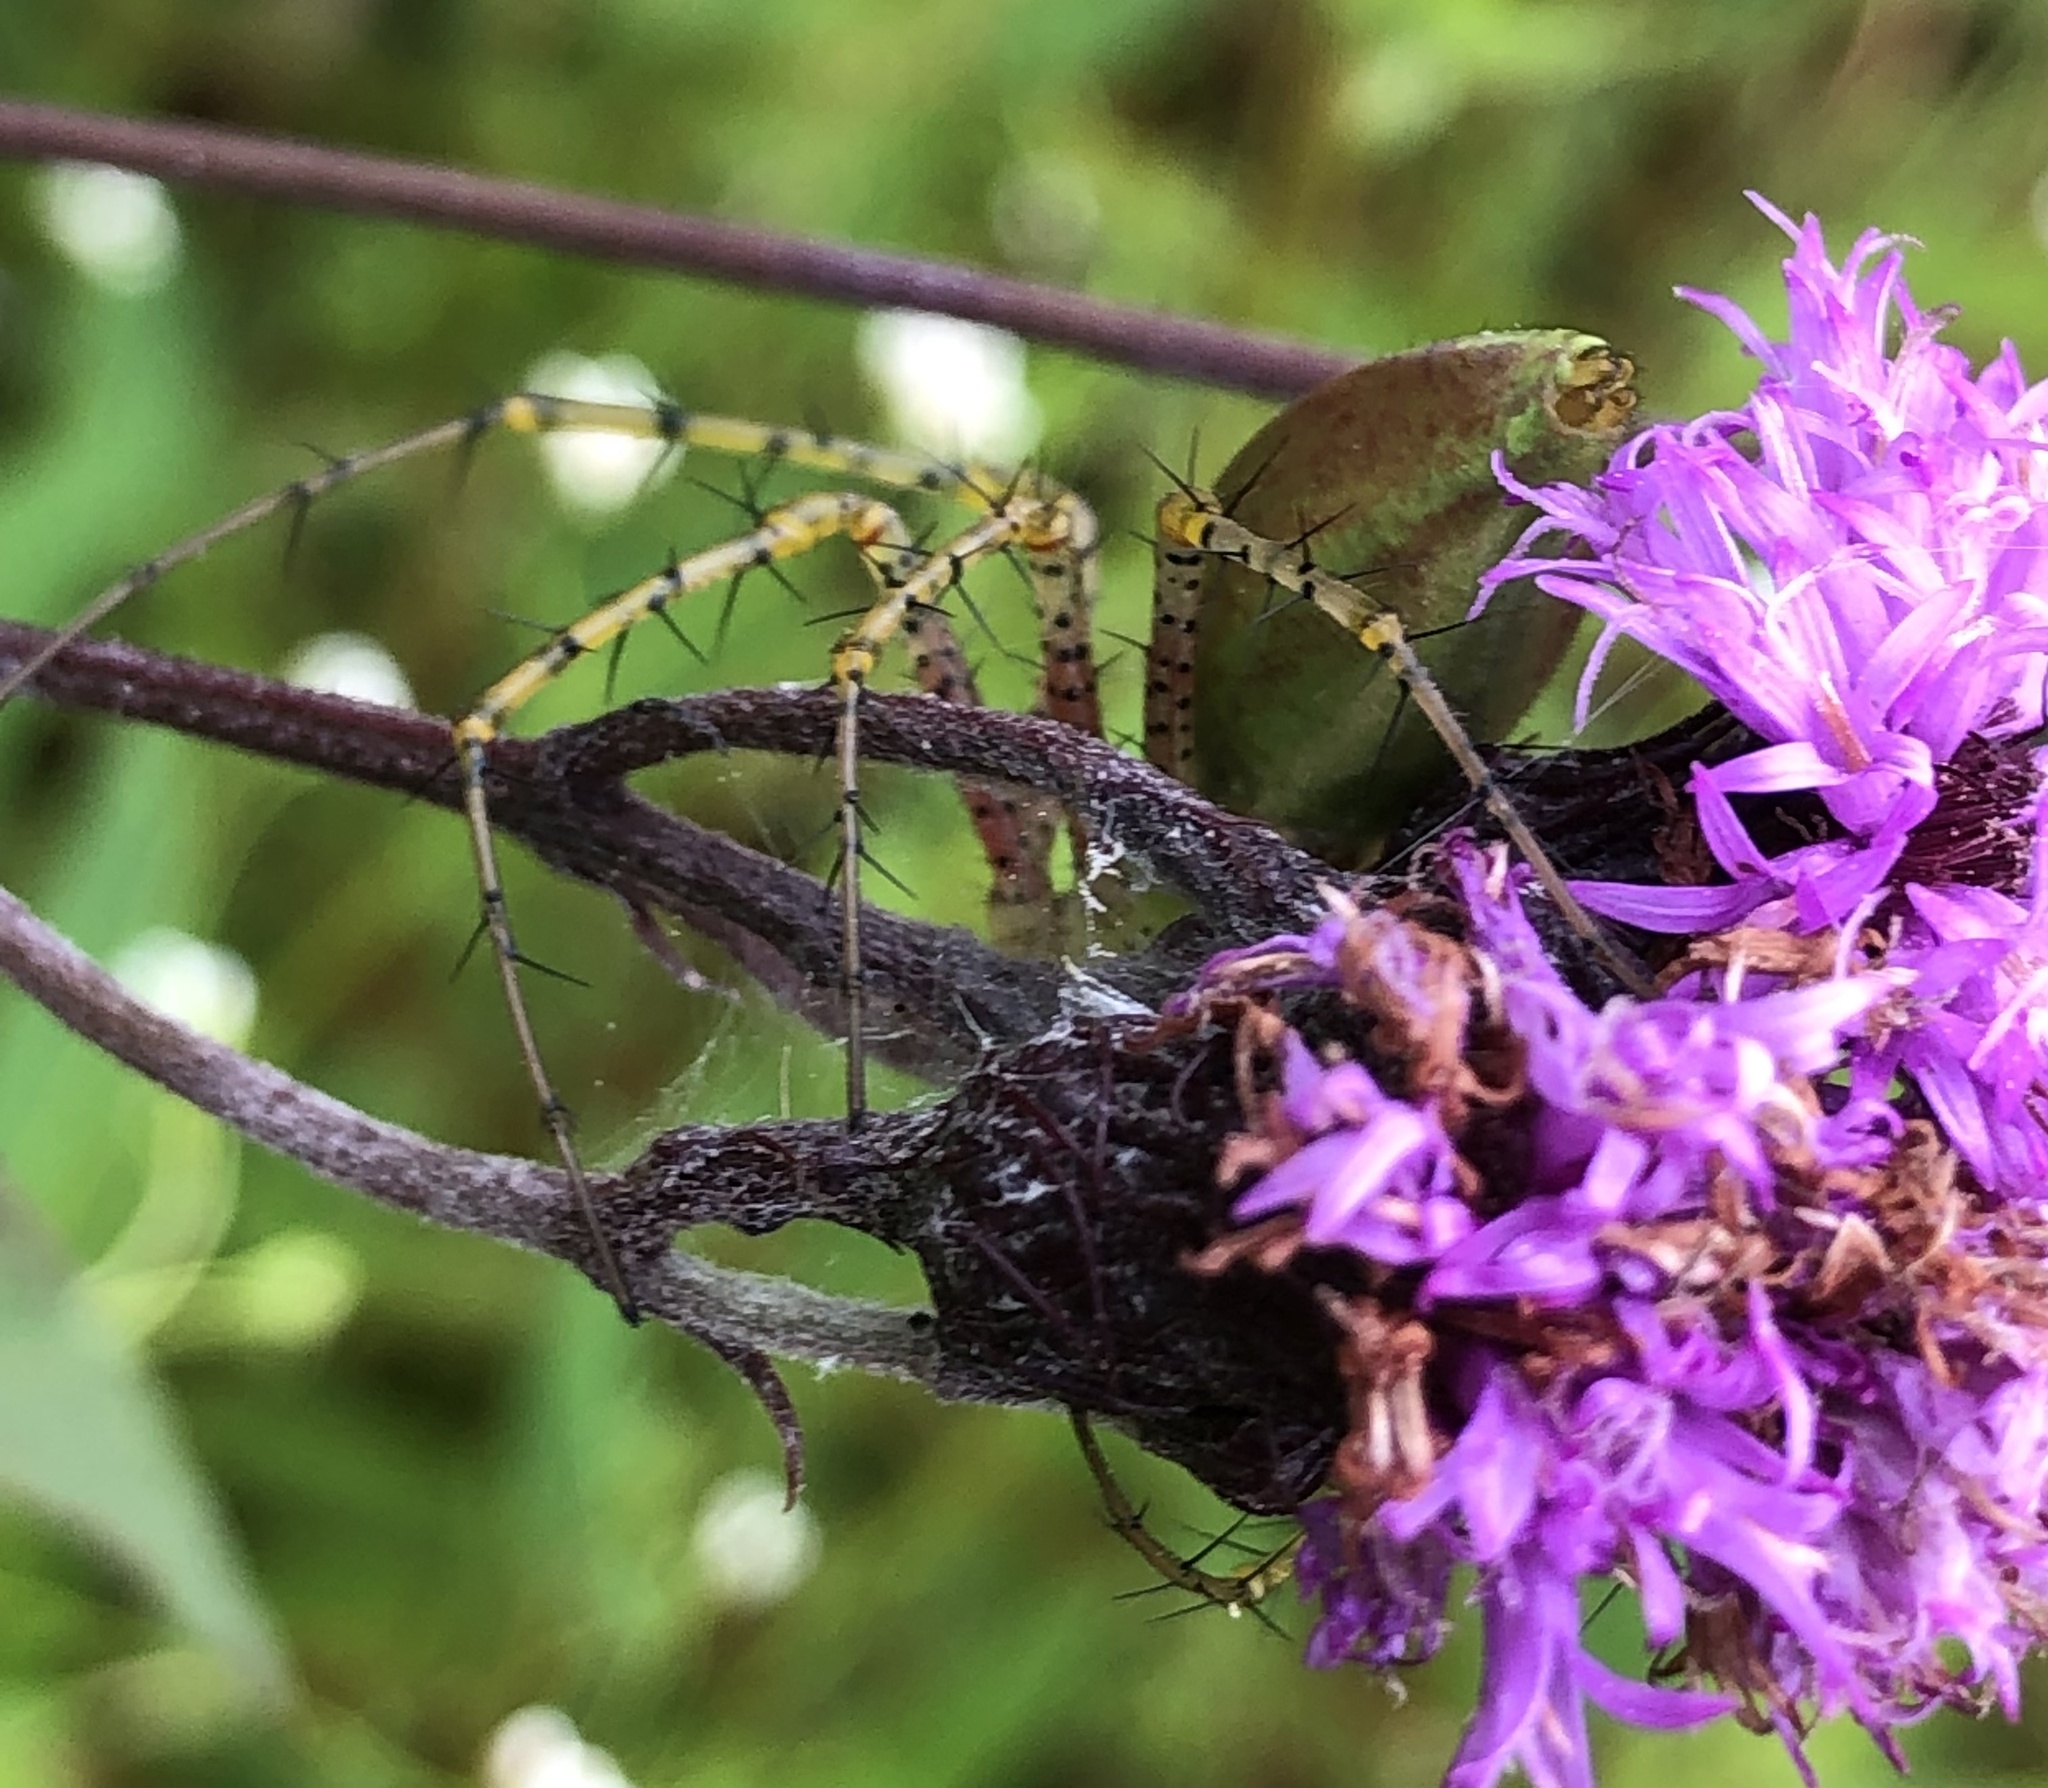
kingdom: Animalia
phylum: Arthropoda
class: Arachnida
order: Araneae
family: Oxyopidae
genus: Peucetia
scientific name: Peucetia viridans
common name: Lynx spiders
